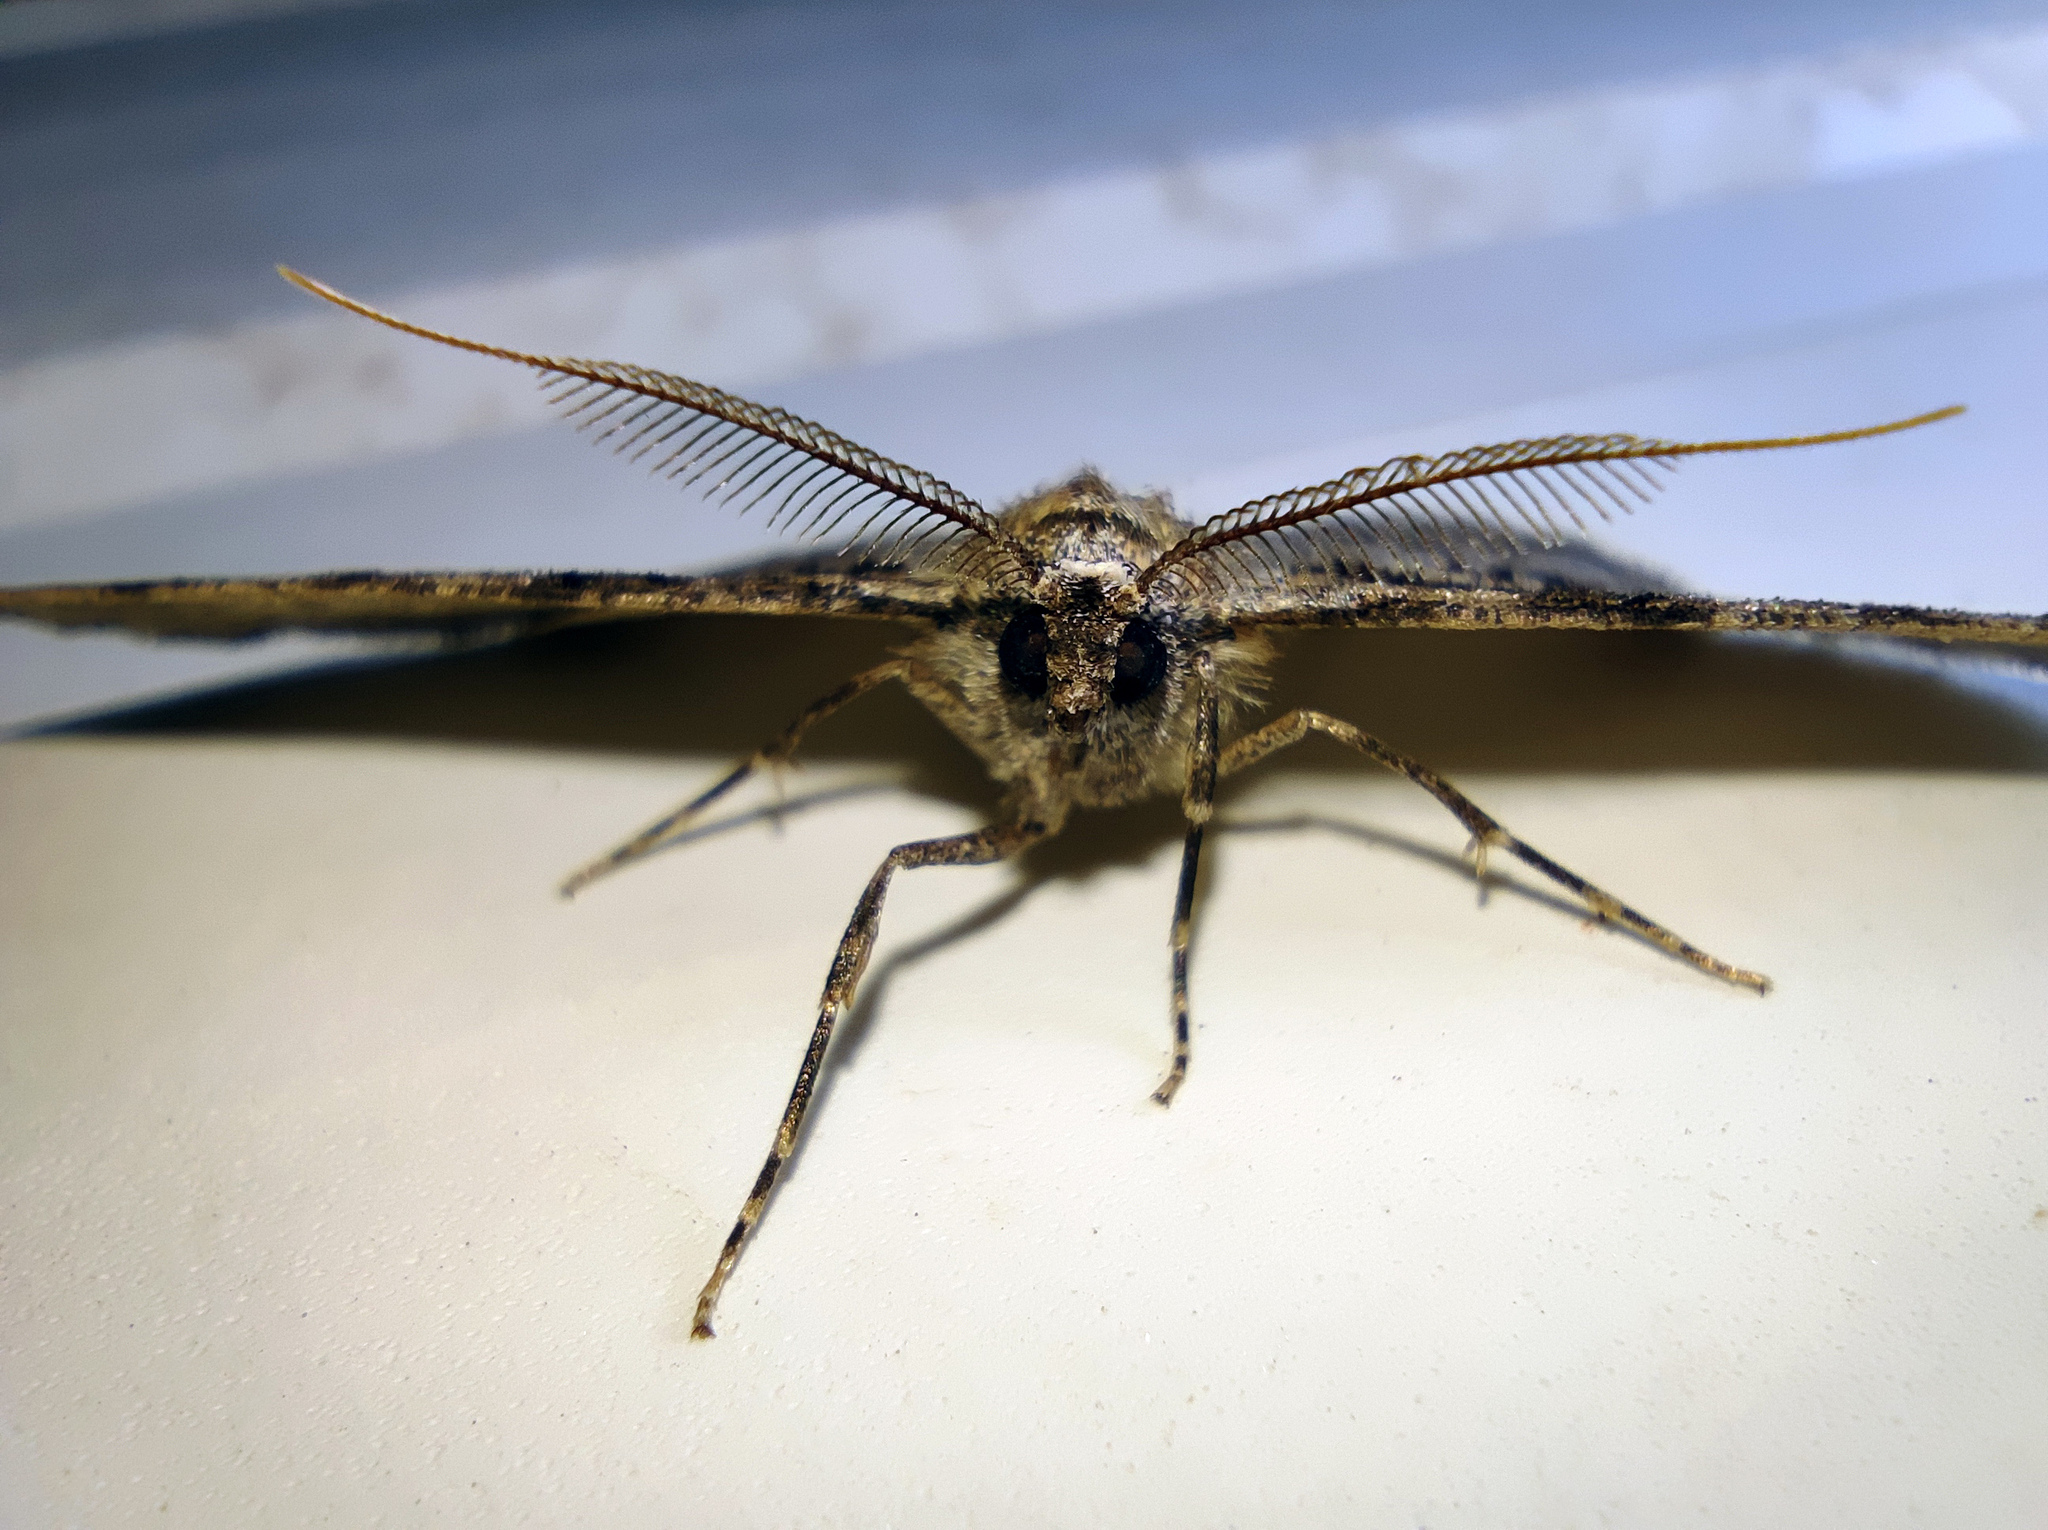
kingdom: Animalia
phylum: Arthropoda
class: Insecta
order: Lepidoptera
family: Geometridae
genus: Cleora
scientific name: Cleora cinctaria
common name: Ringed carpet
